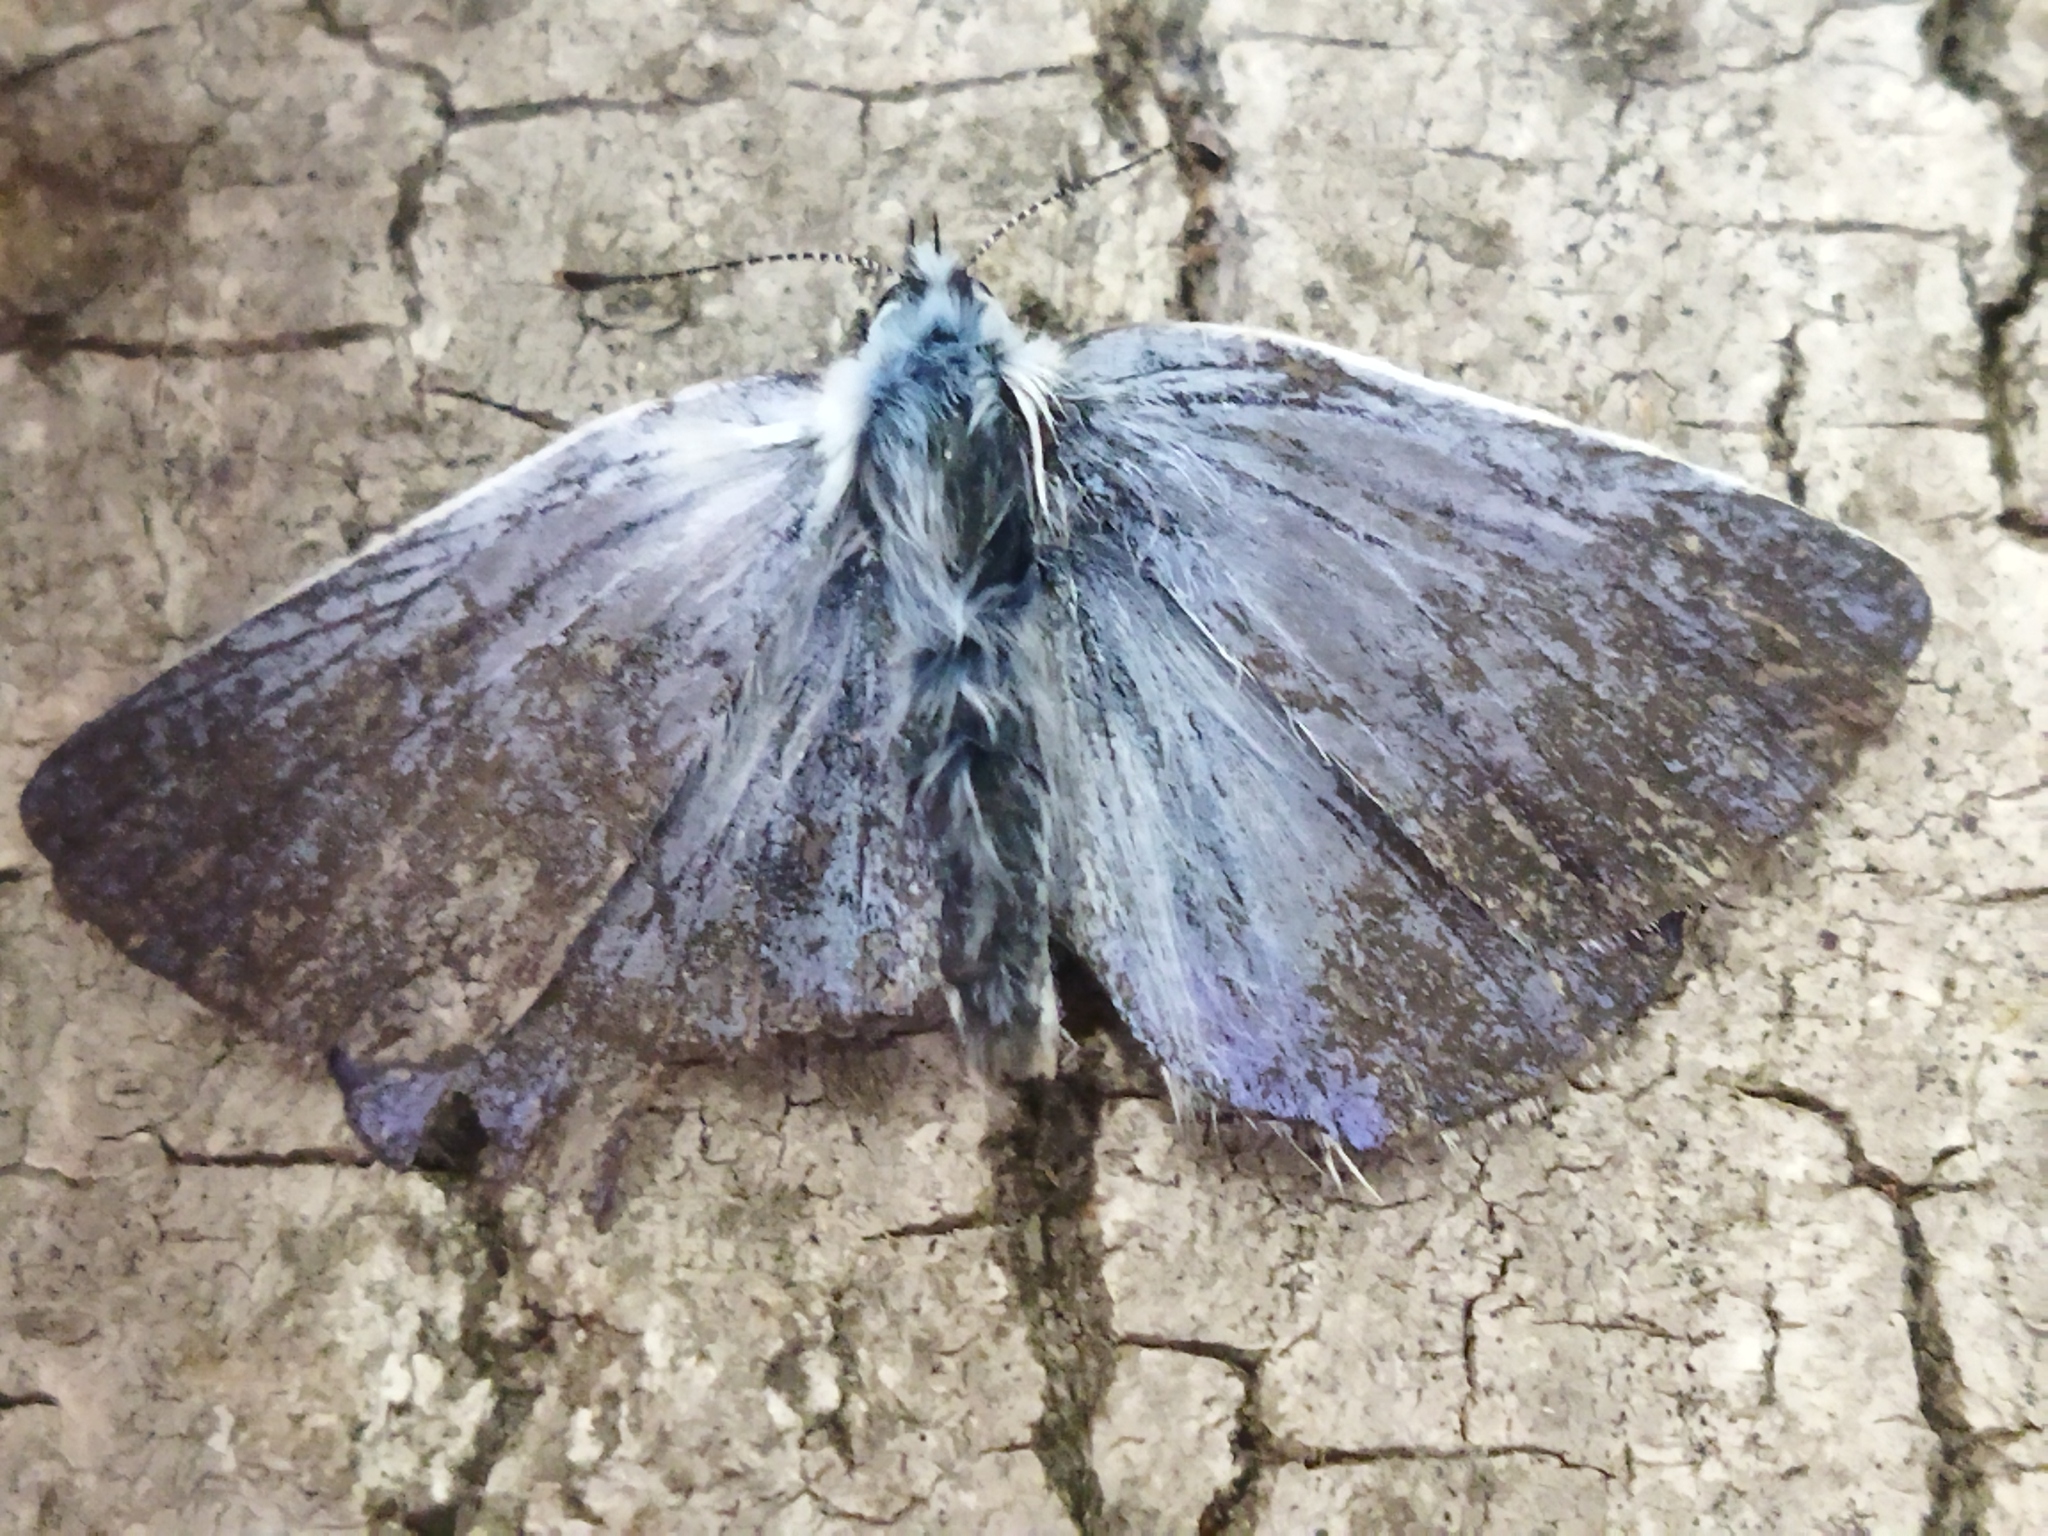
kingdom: Animalia
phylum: Arthropoda
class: Insecta
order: Lepidoptera
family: Lycaenidae
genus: Polyommatus
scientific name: Polyommatus icarus
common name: Common blue
